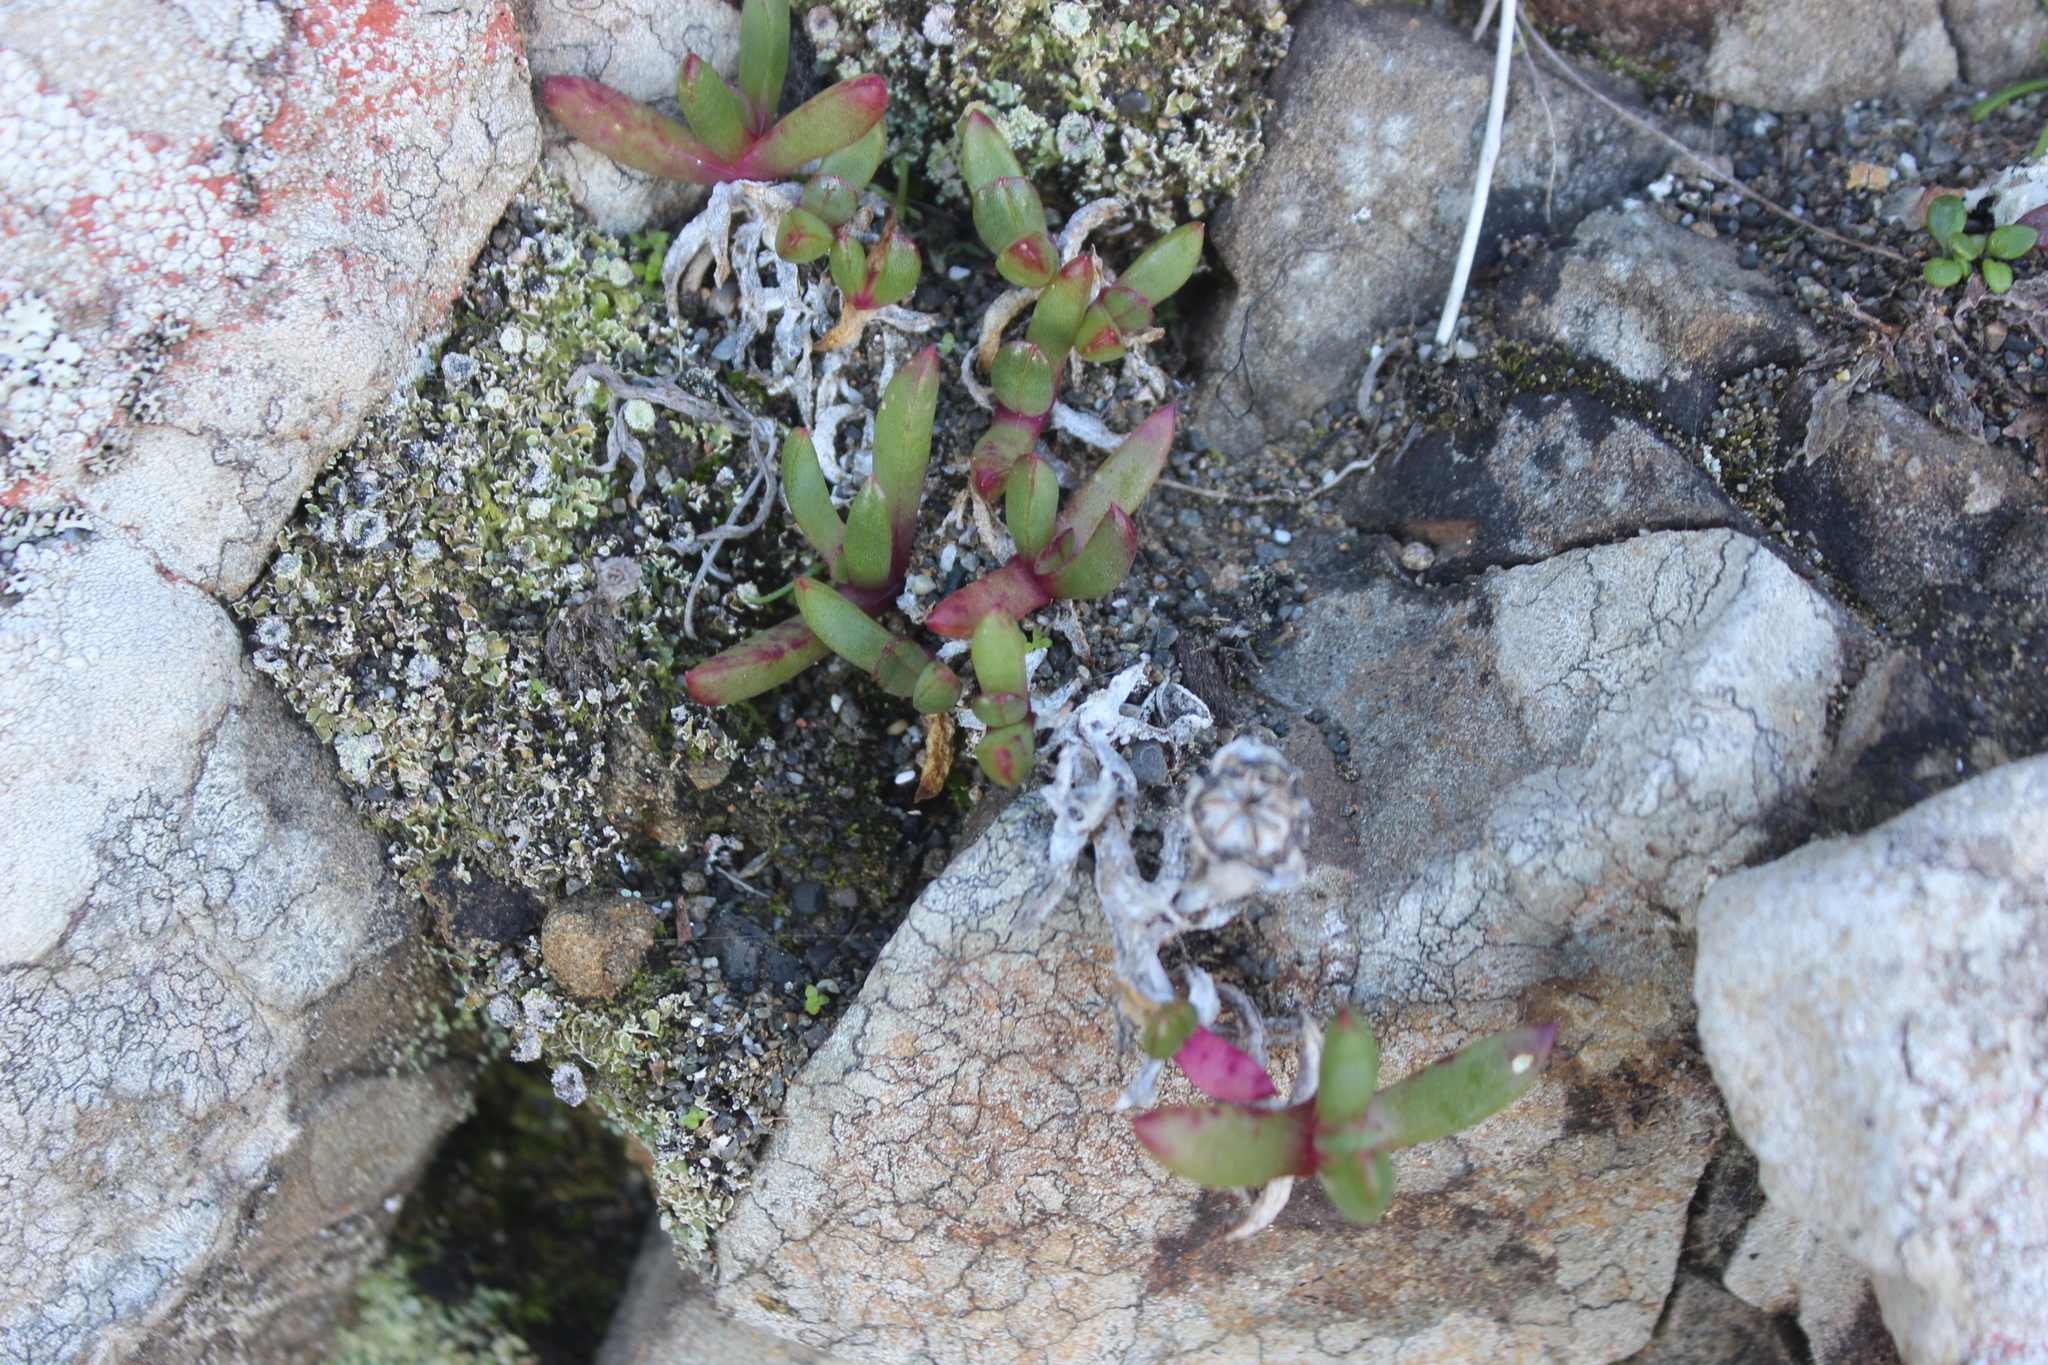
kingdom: Plantae
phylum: Tracheophyta
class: Magnoliopsida
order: Caryophyllales
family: Aizoaceae
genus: Disphyma
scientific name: Disphyma australe
